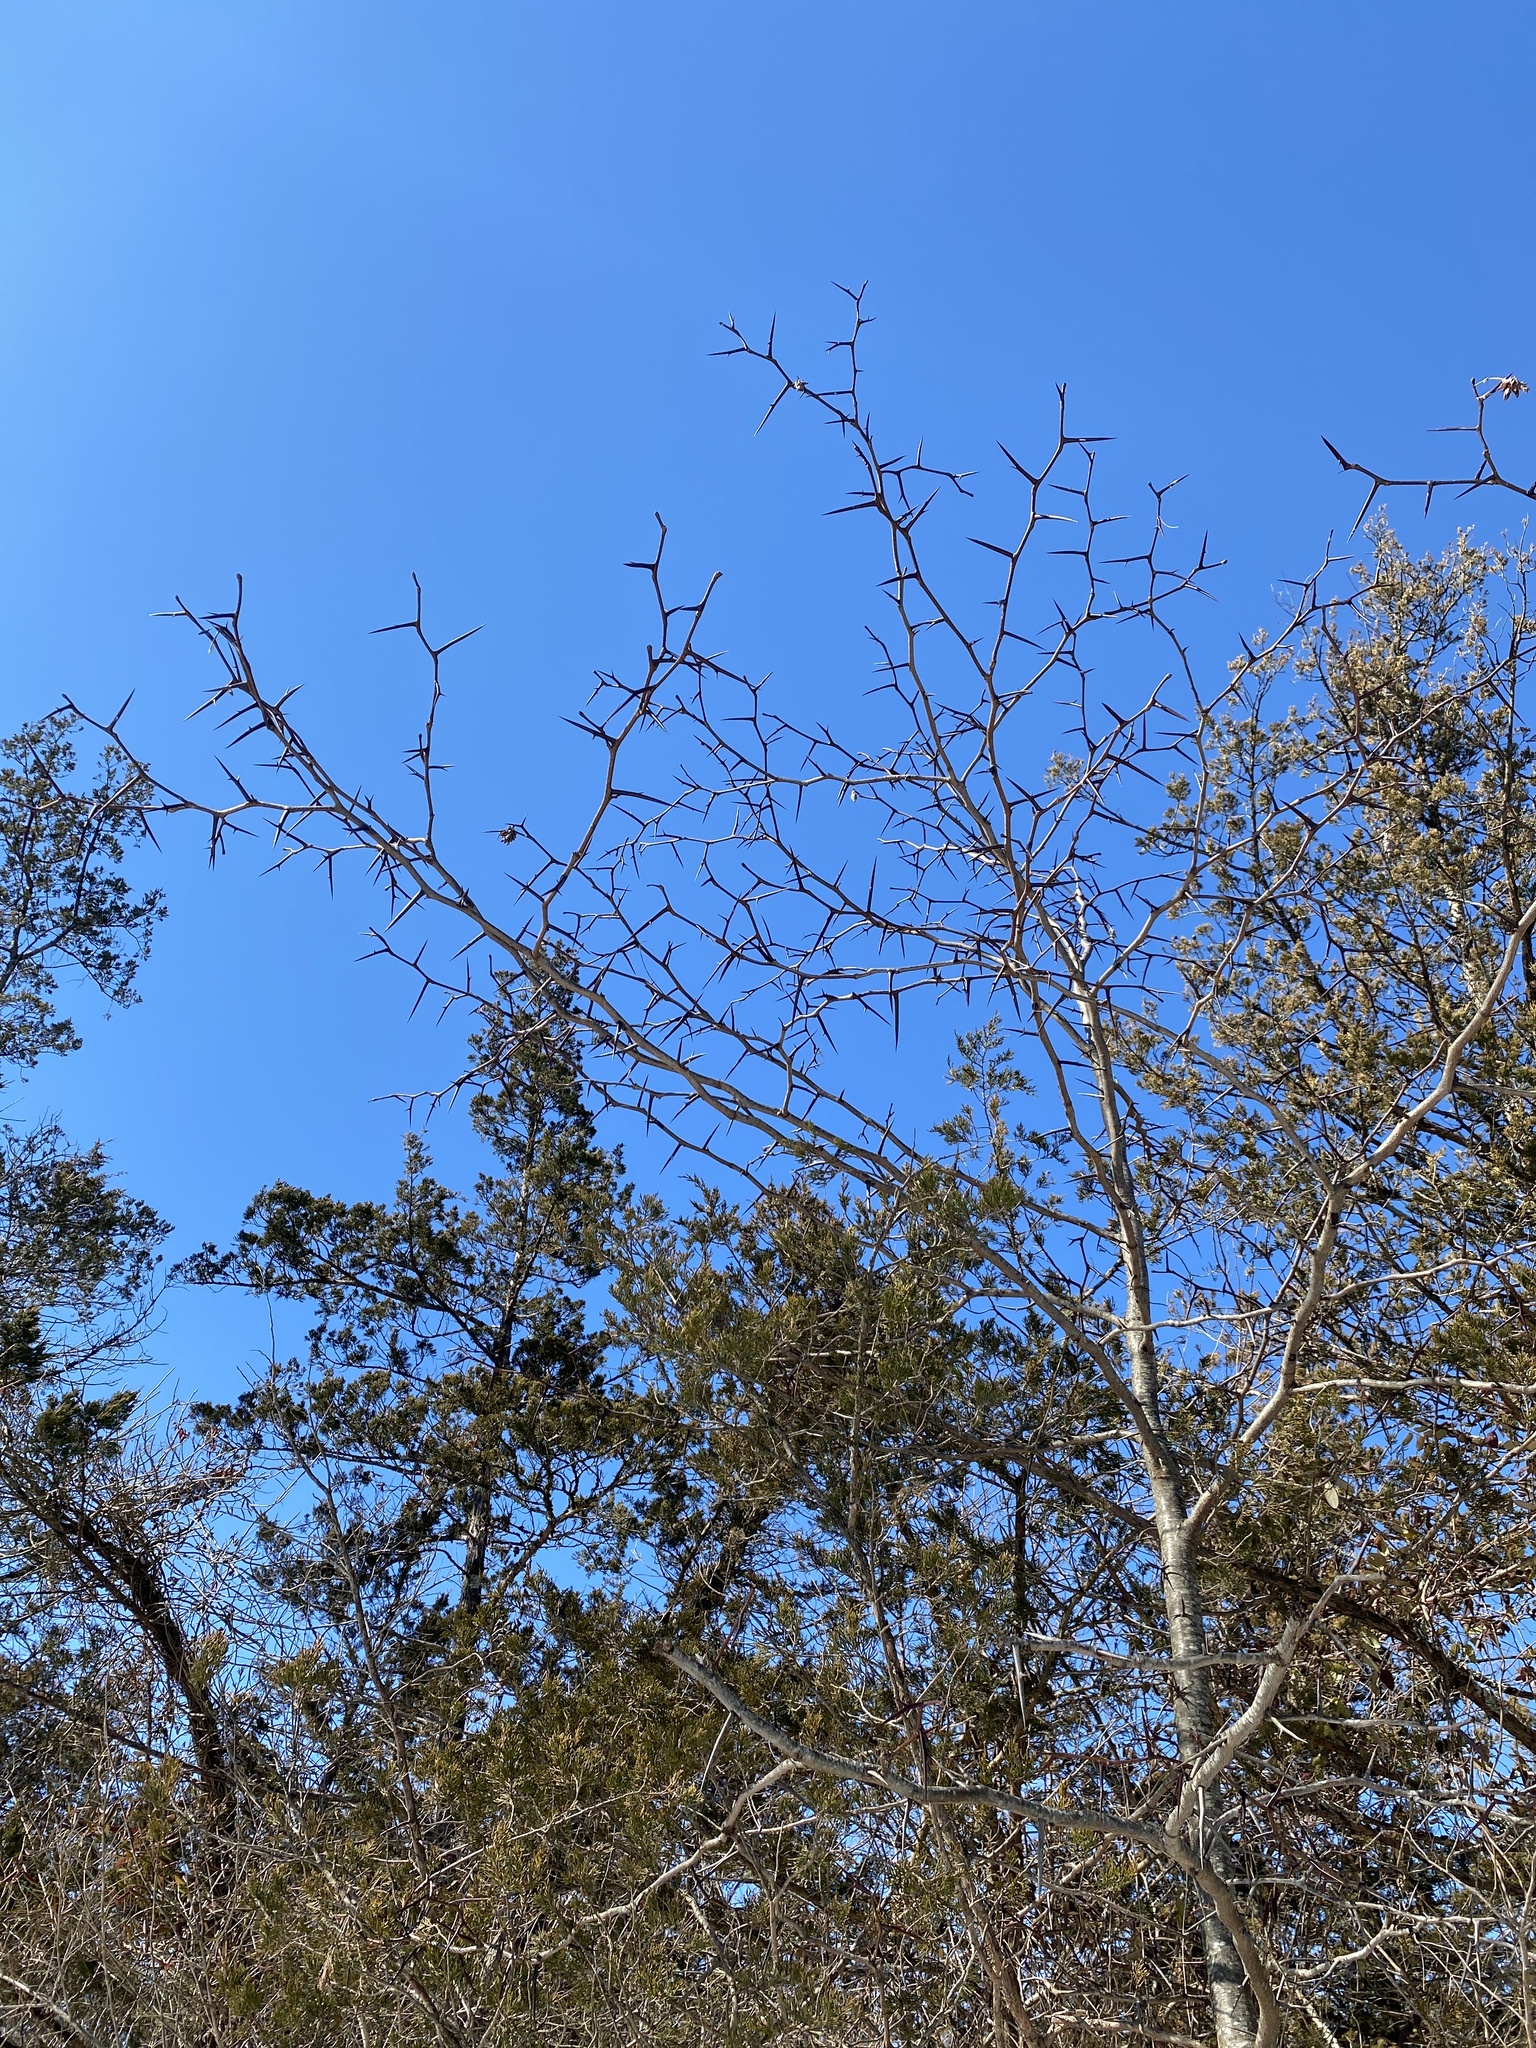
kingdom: Plantae
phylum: Tracheophyta
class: Magnoliopsida
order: Fabales
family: Fabaceae
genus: Gleditsia
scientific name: Gleditsia triacanthos
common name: Common honeylocust
